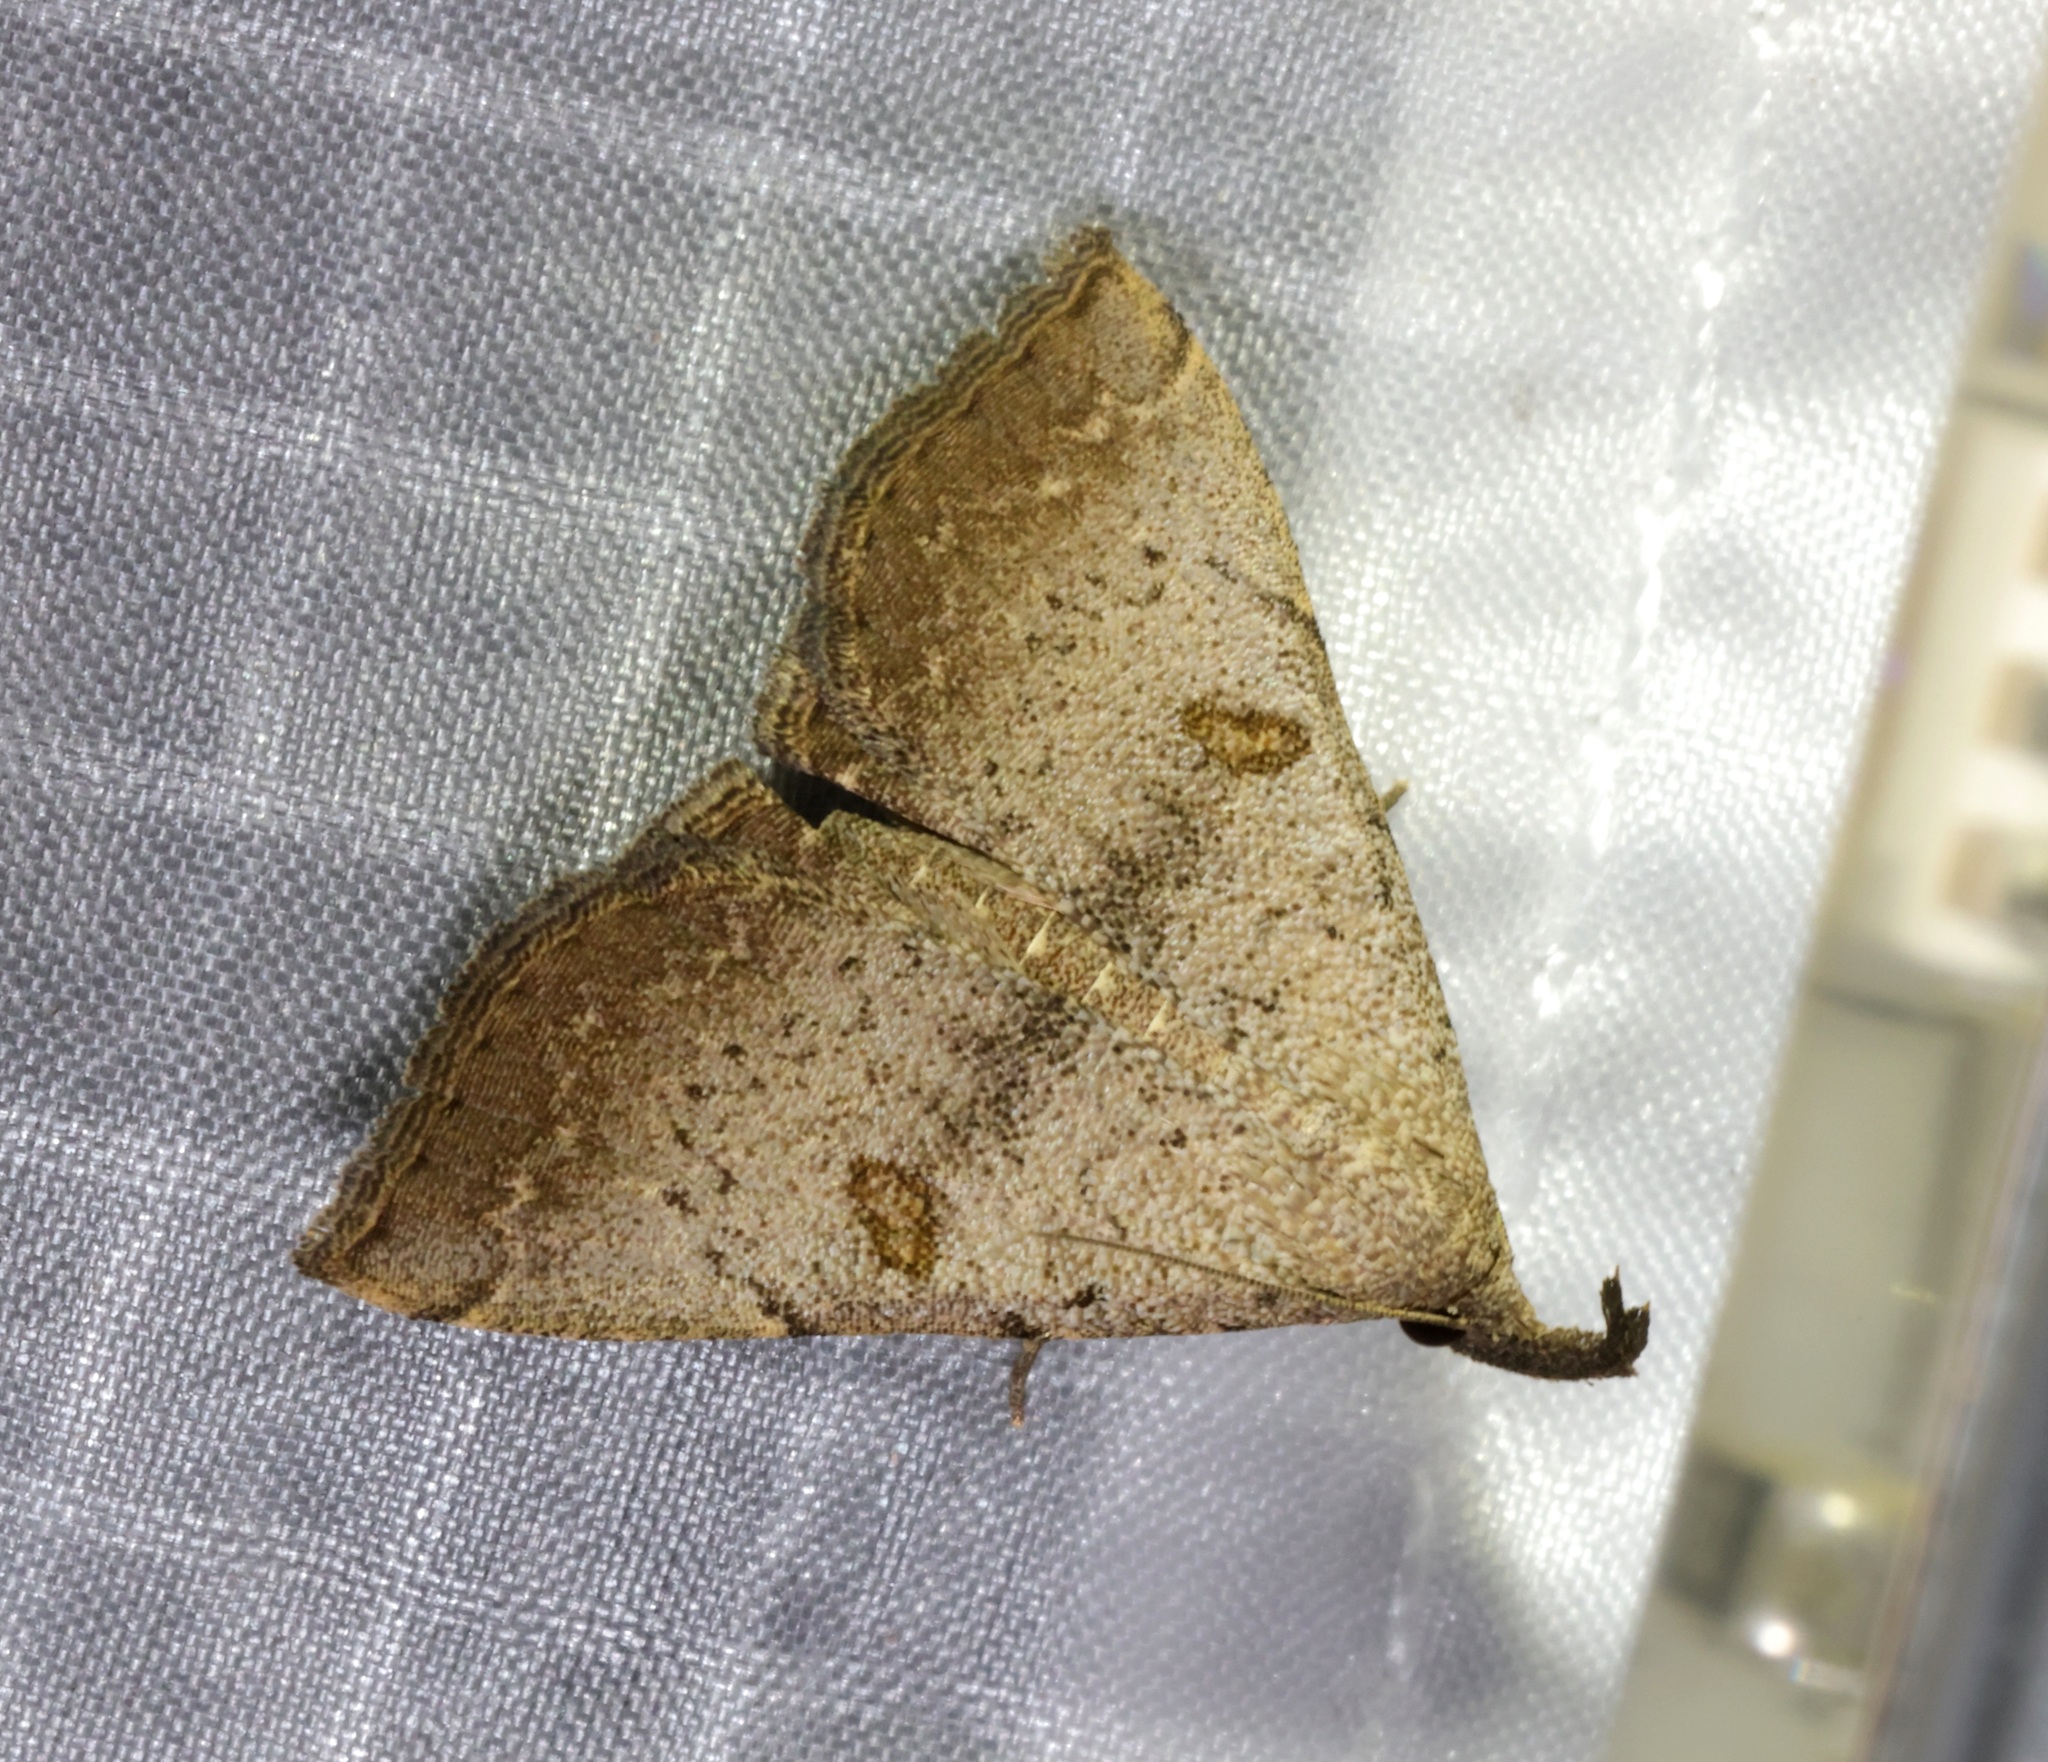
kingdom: Animalia
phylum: Arthropoda
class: Insecta
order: Lepidoptera
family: Erebidae
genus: Progonia
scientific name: Progonia oileusalis
